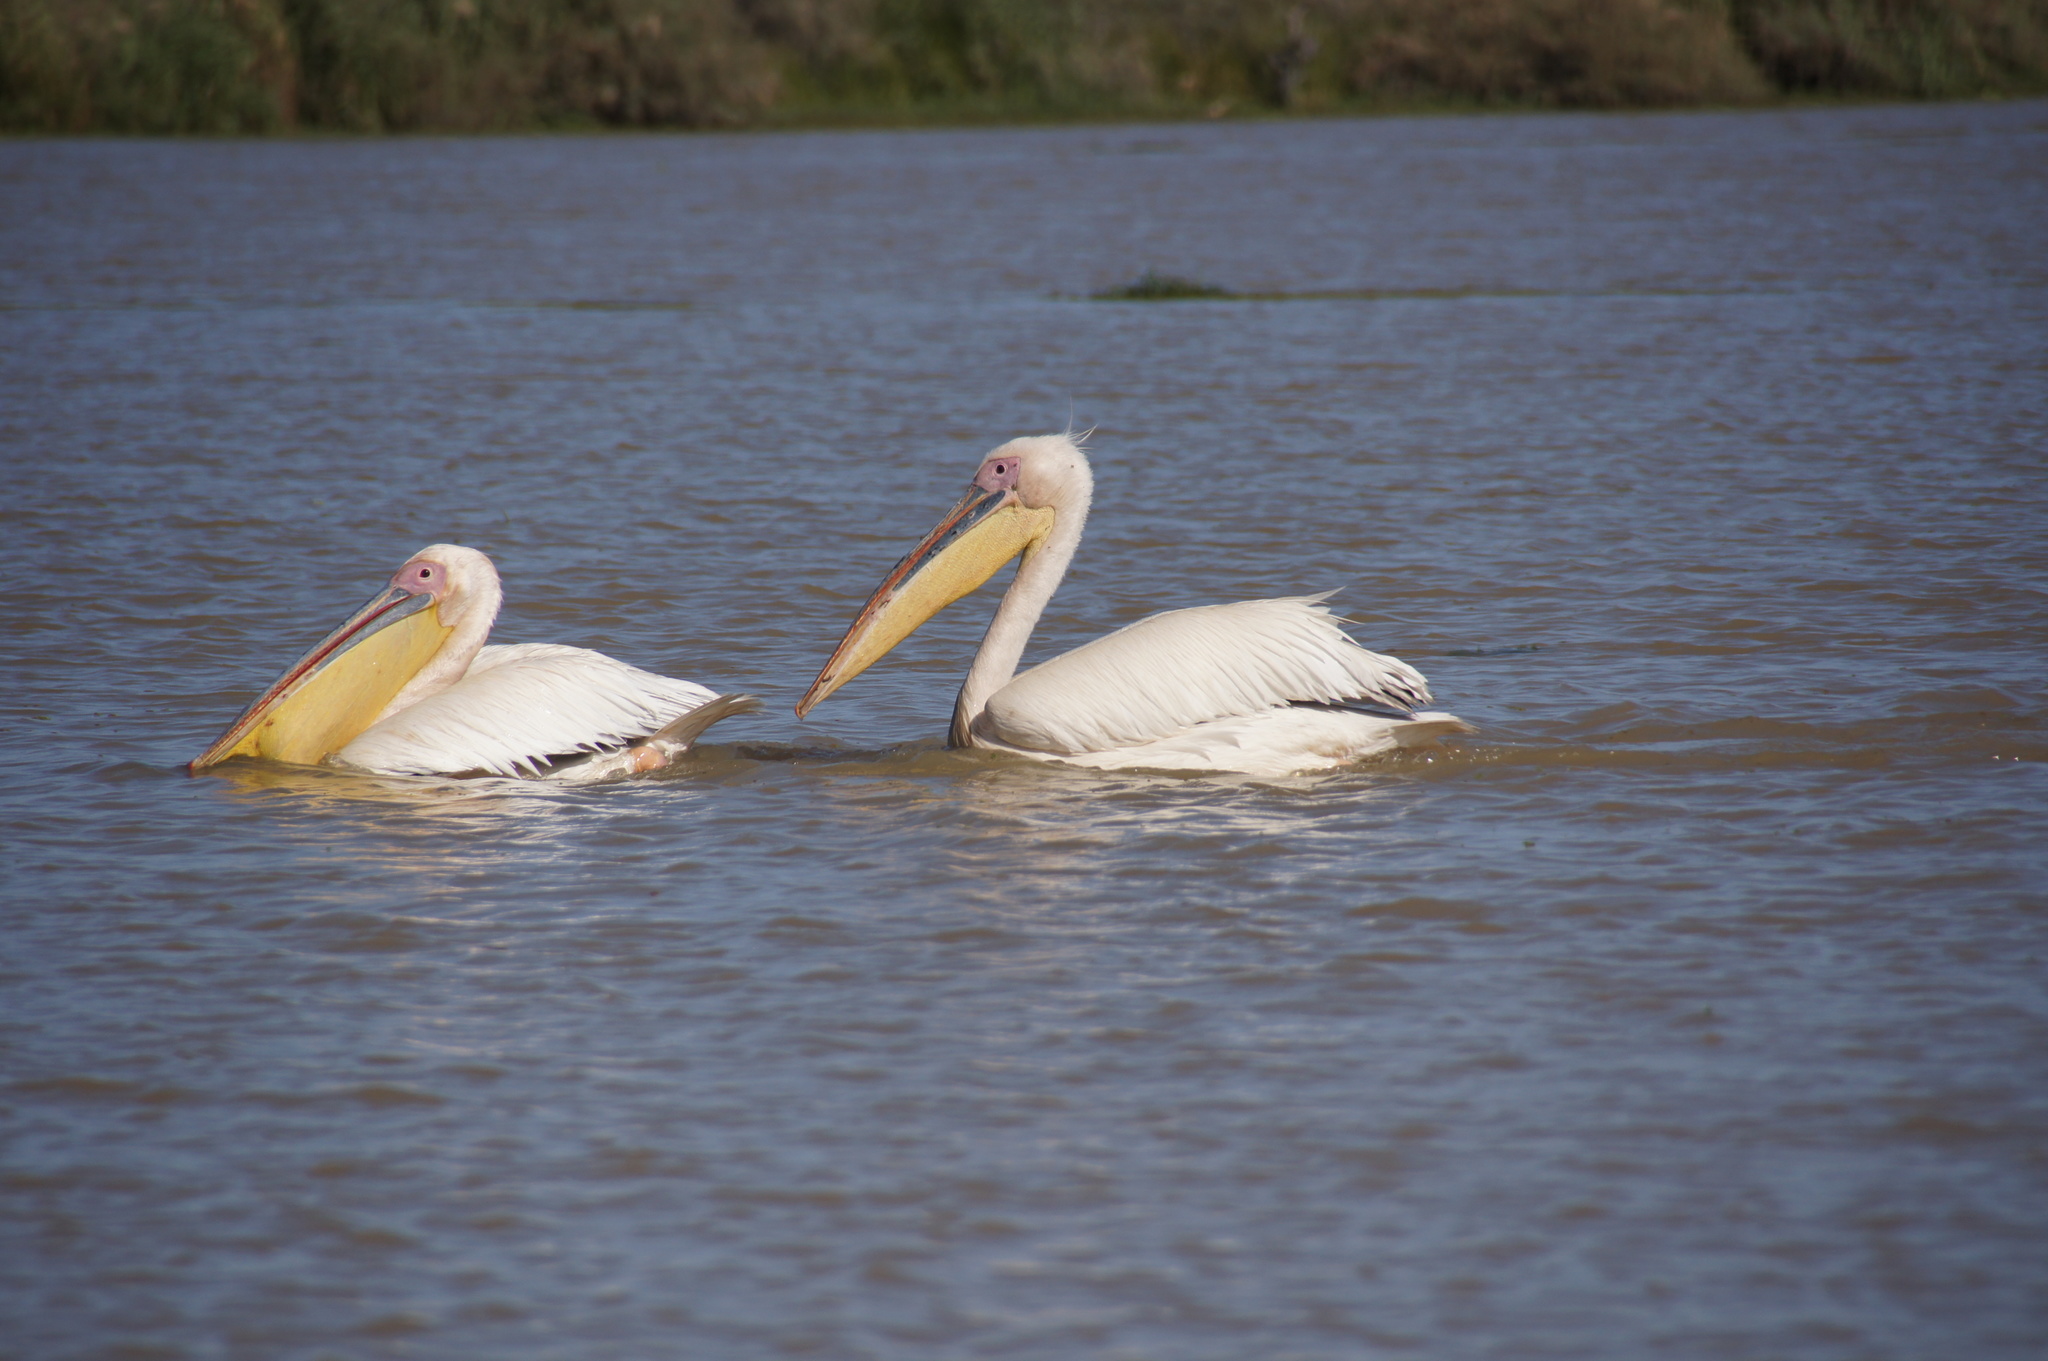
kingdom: Animalia
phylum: Chordata
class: Aves
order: Pelecaniformes
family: Pelecanidae
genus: Pelecanus
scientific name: Pelecanus onocrotalus
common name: Great white pelican
